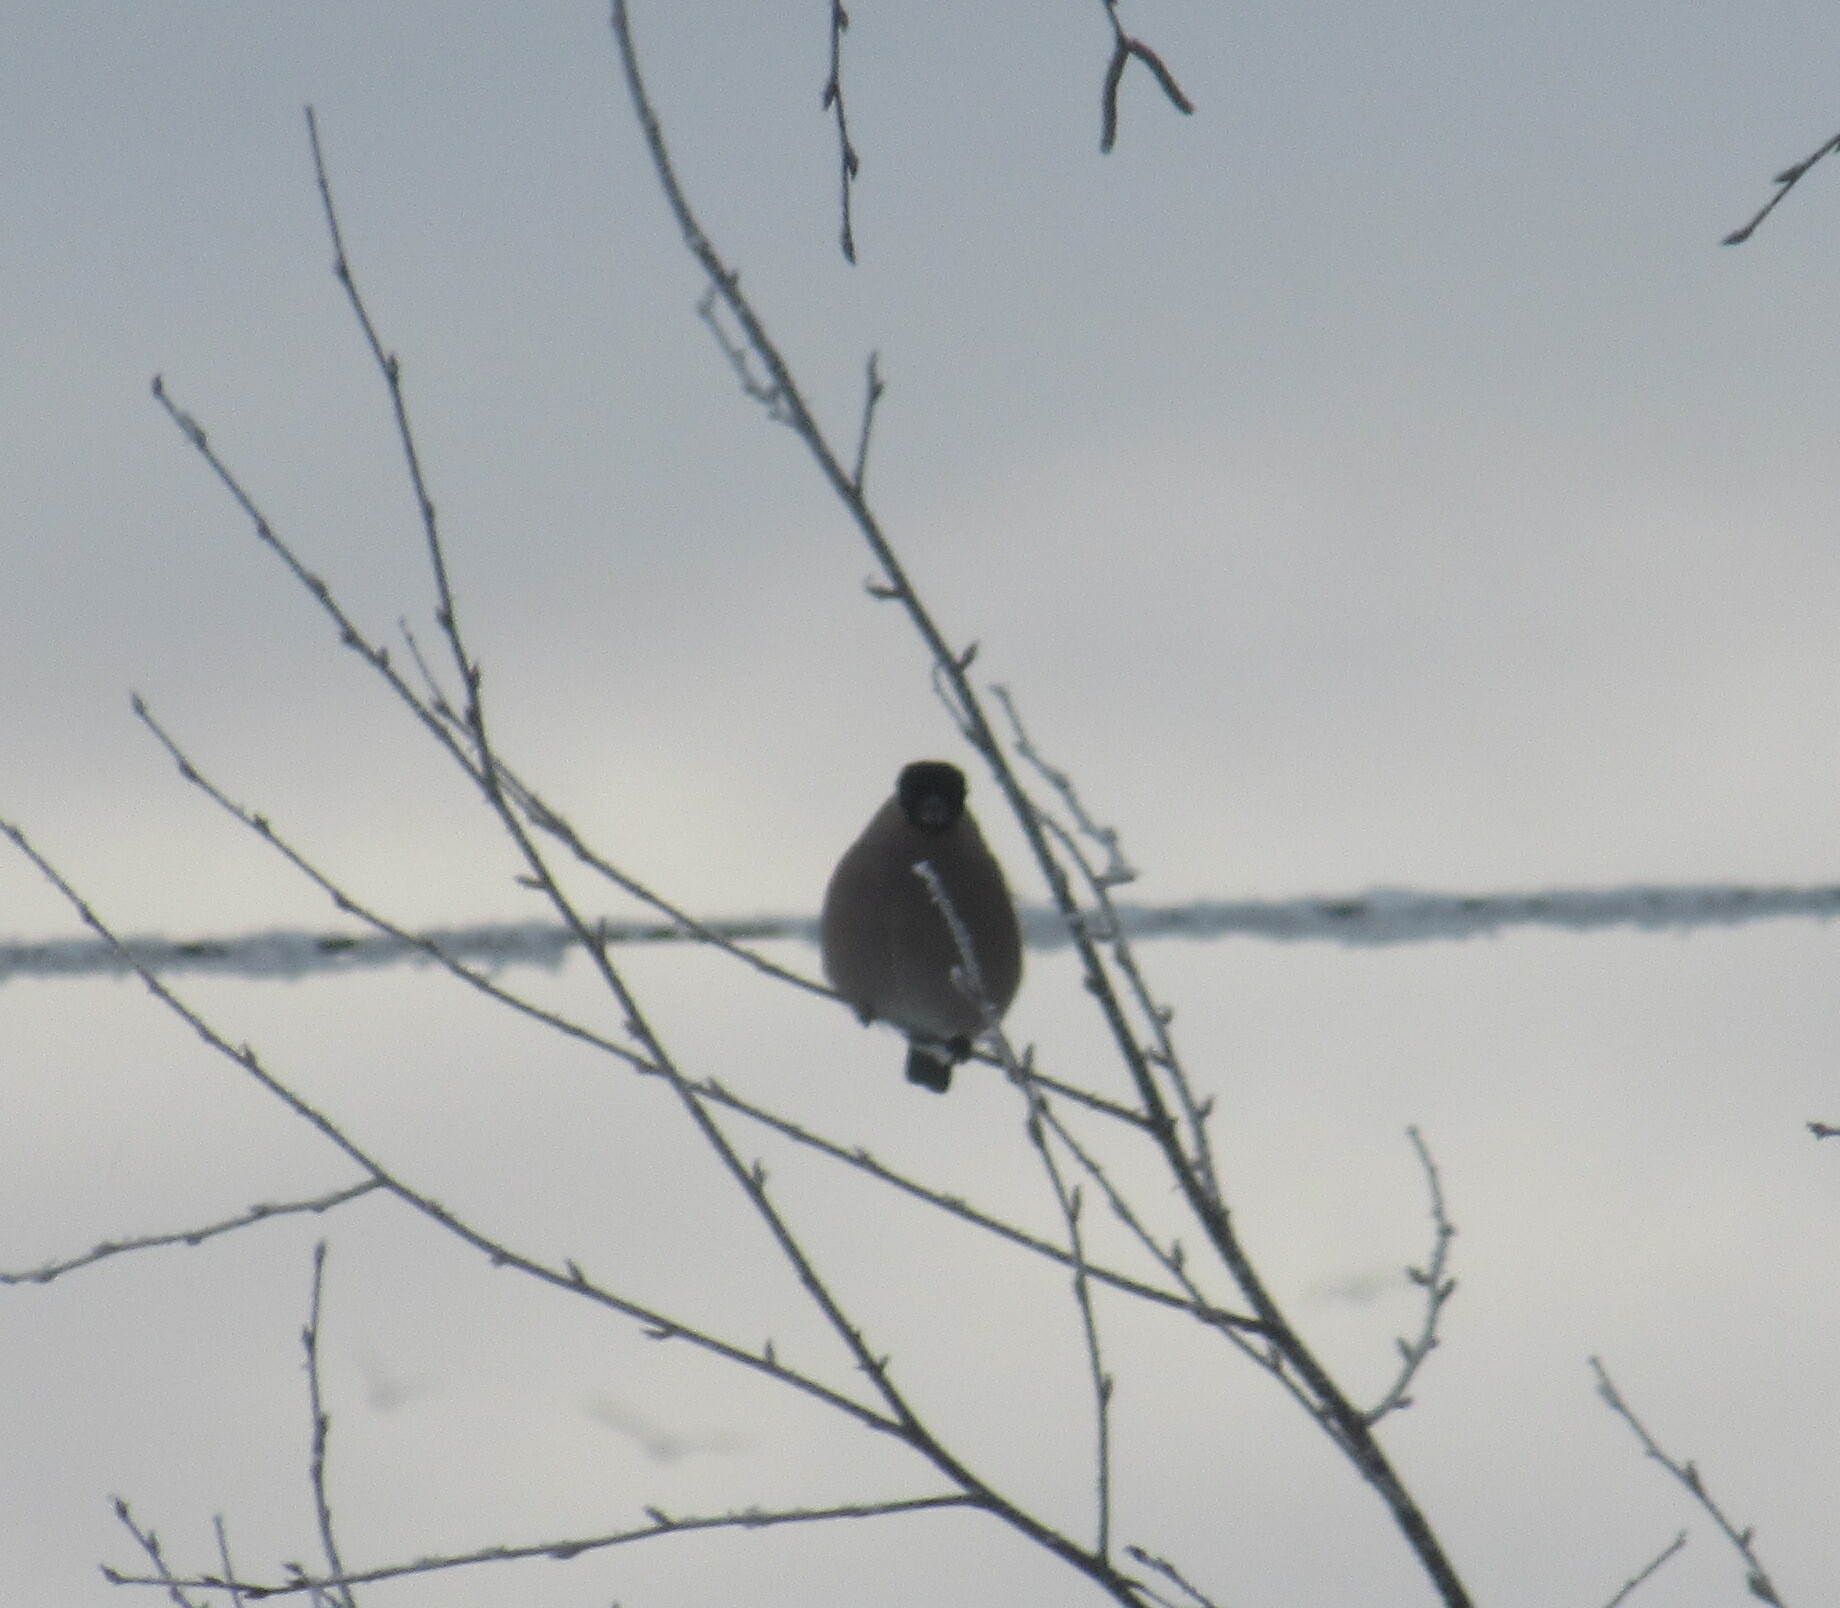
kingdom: Animalia
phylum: Chordata
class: Aves
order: Passeriformes
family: Fringillidae
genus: Pyrrhula
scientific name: Pyrrhula pyrrhula
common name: Eurasian bullfinch
